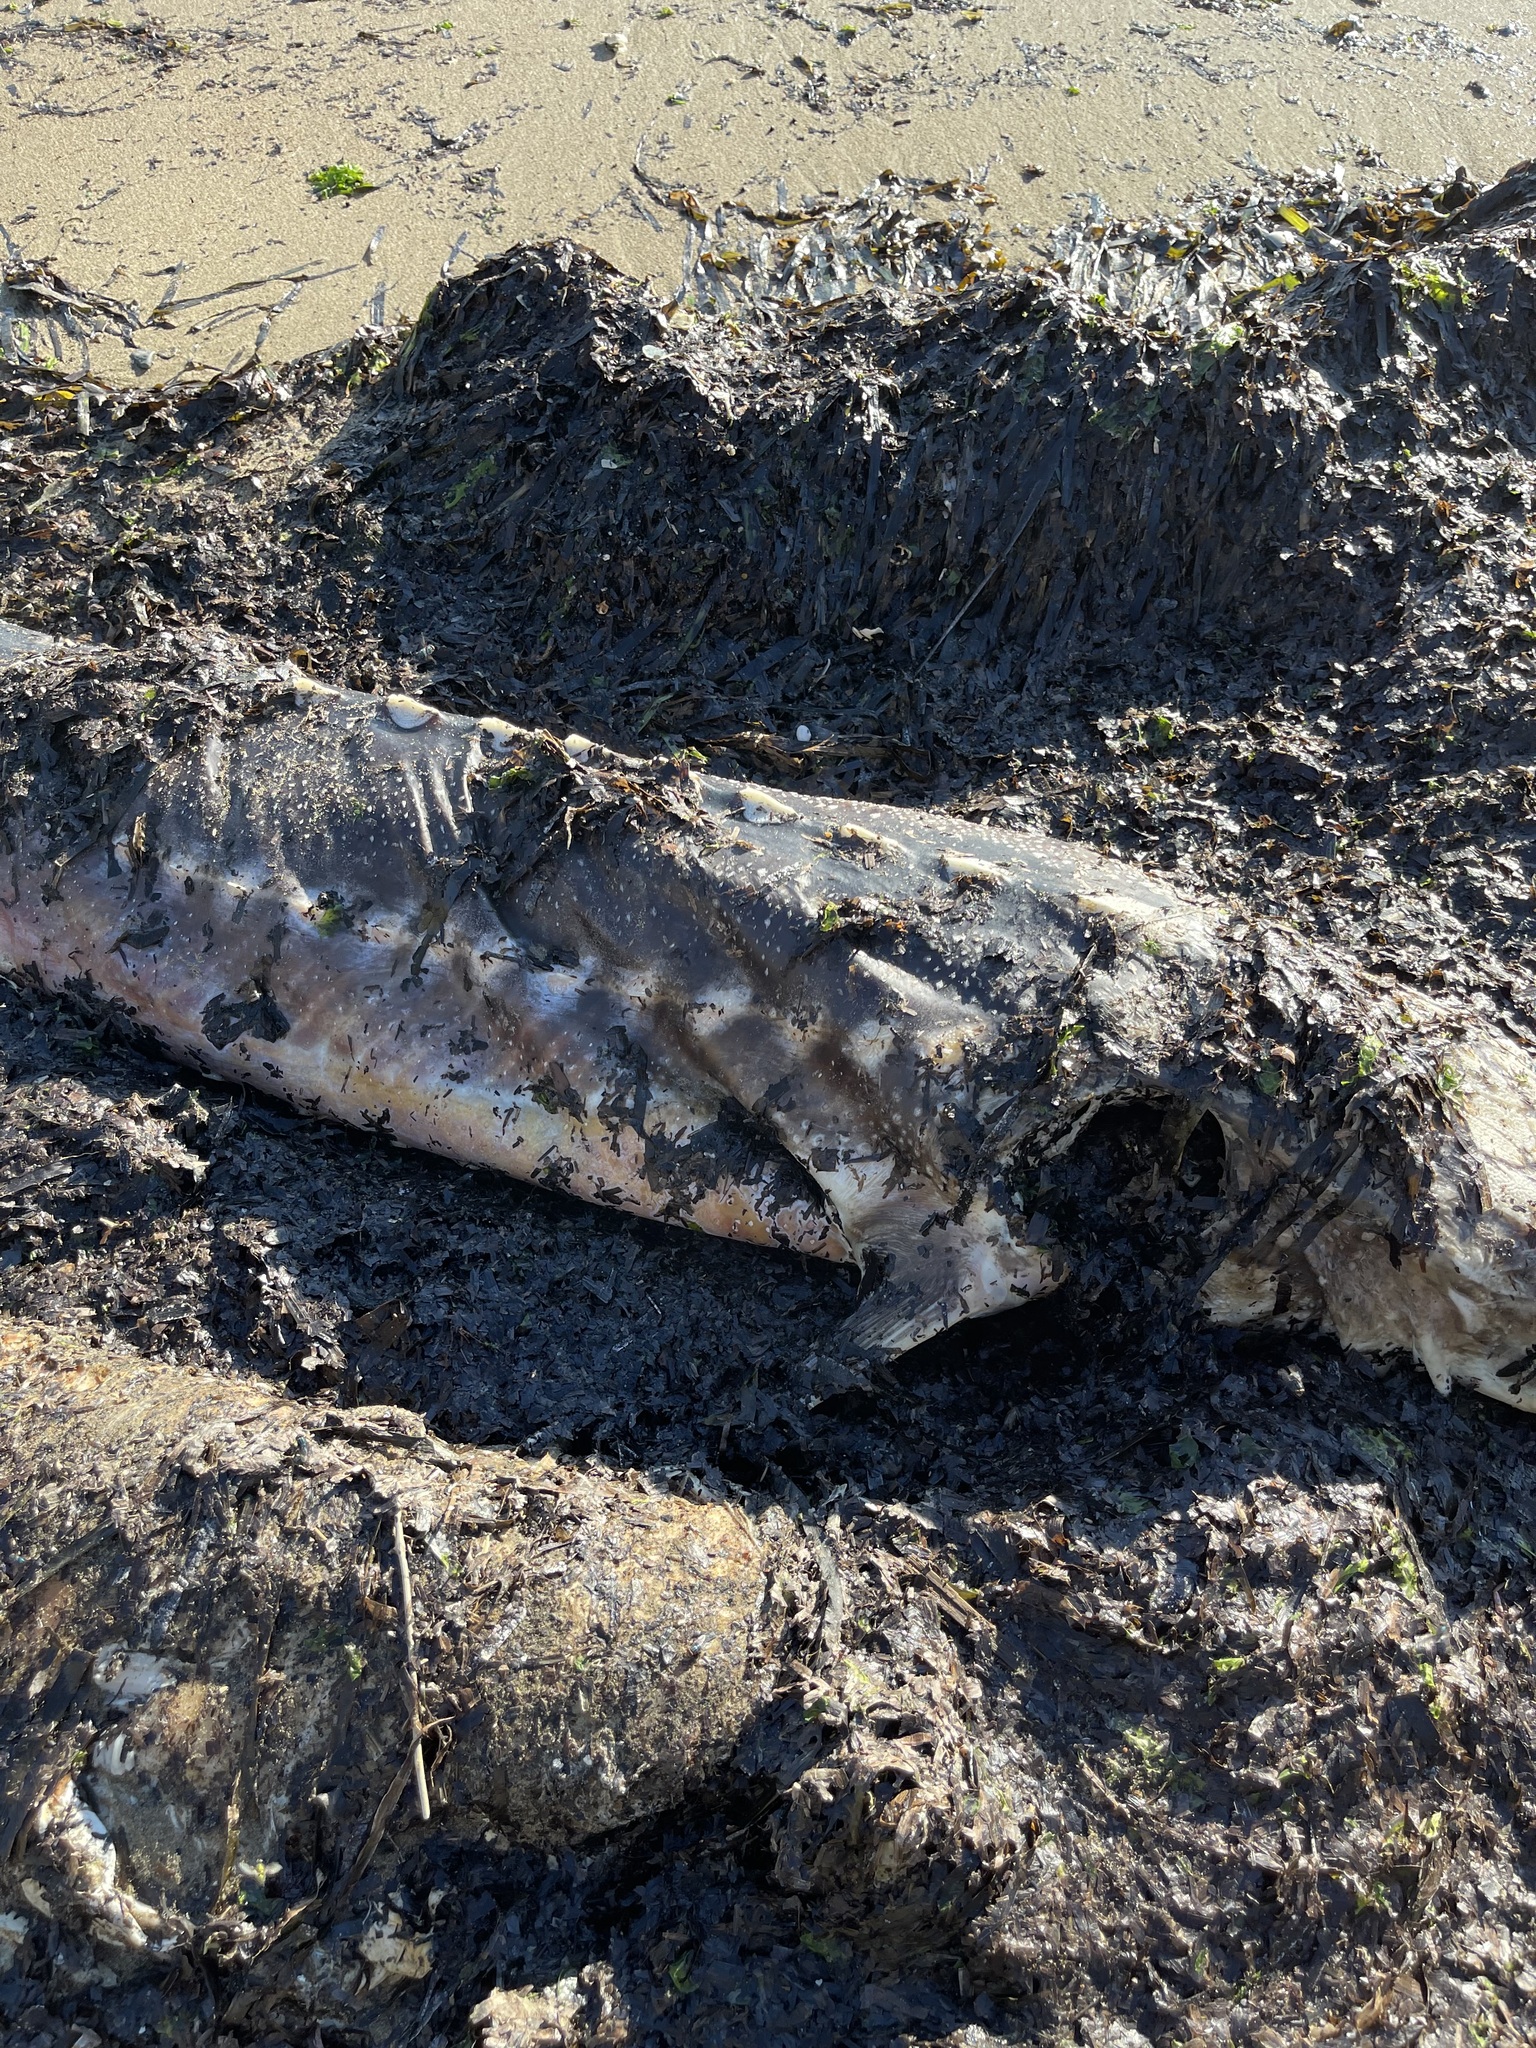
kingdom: Animalia
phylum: Chordata
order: Acipenseriformes
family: Acipenseridae
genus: Acipenser
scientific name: Acipenser transmontanus
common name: White sturgeon
